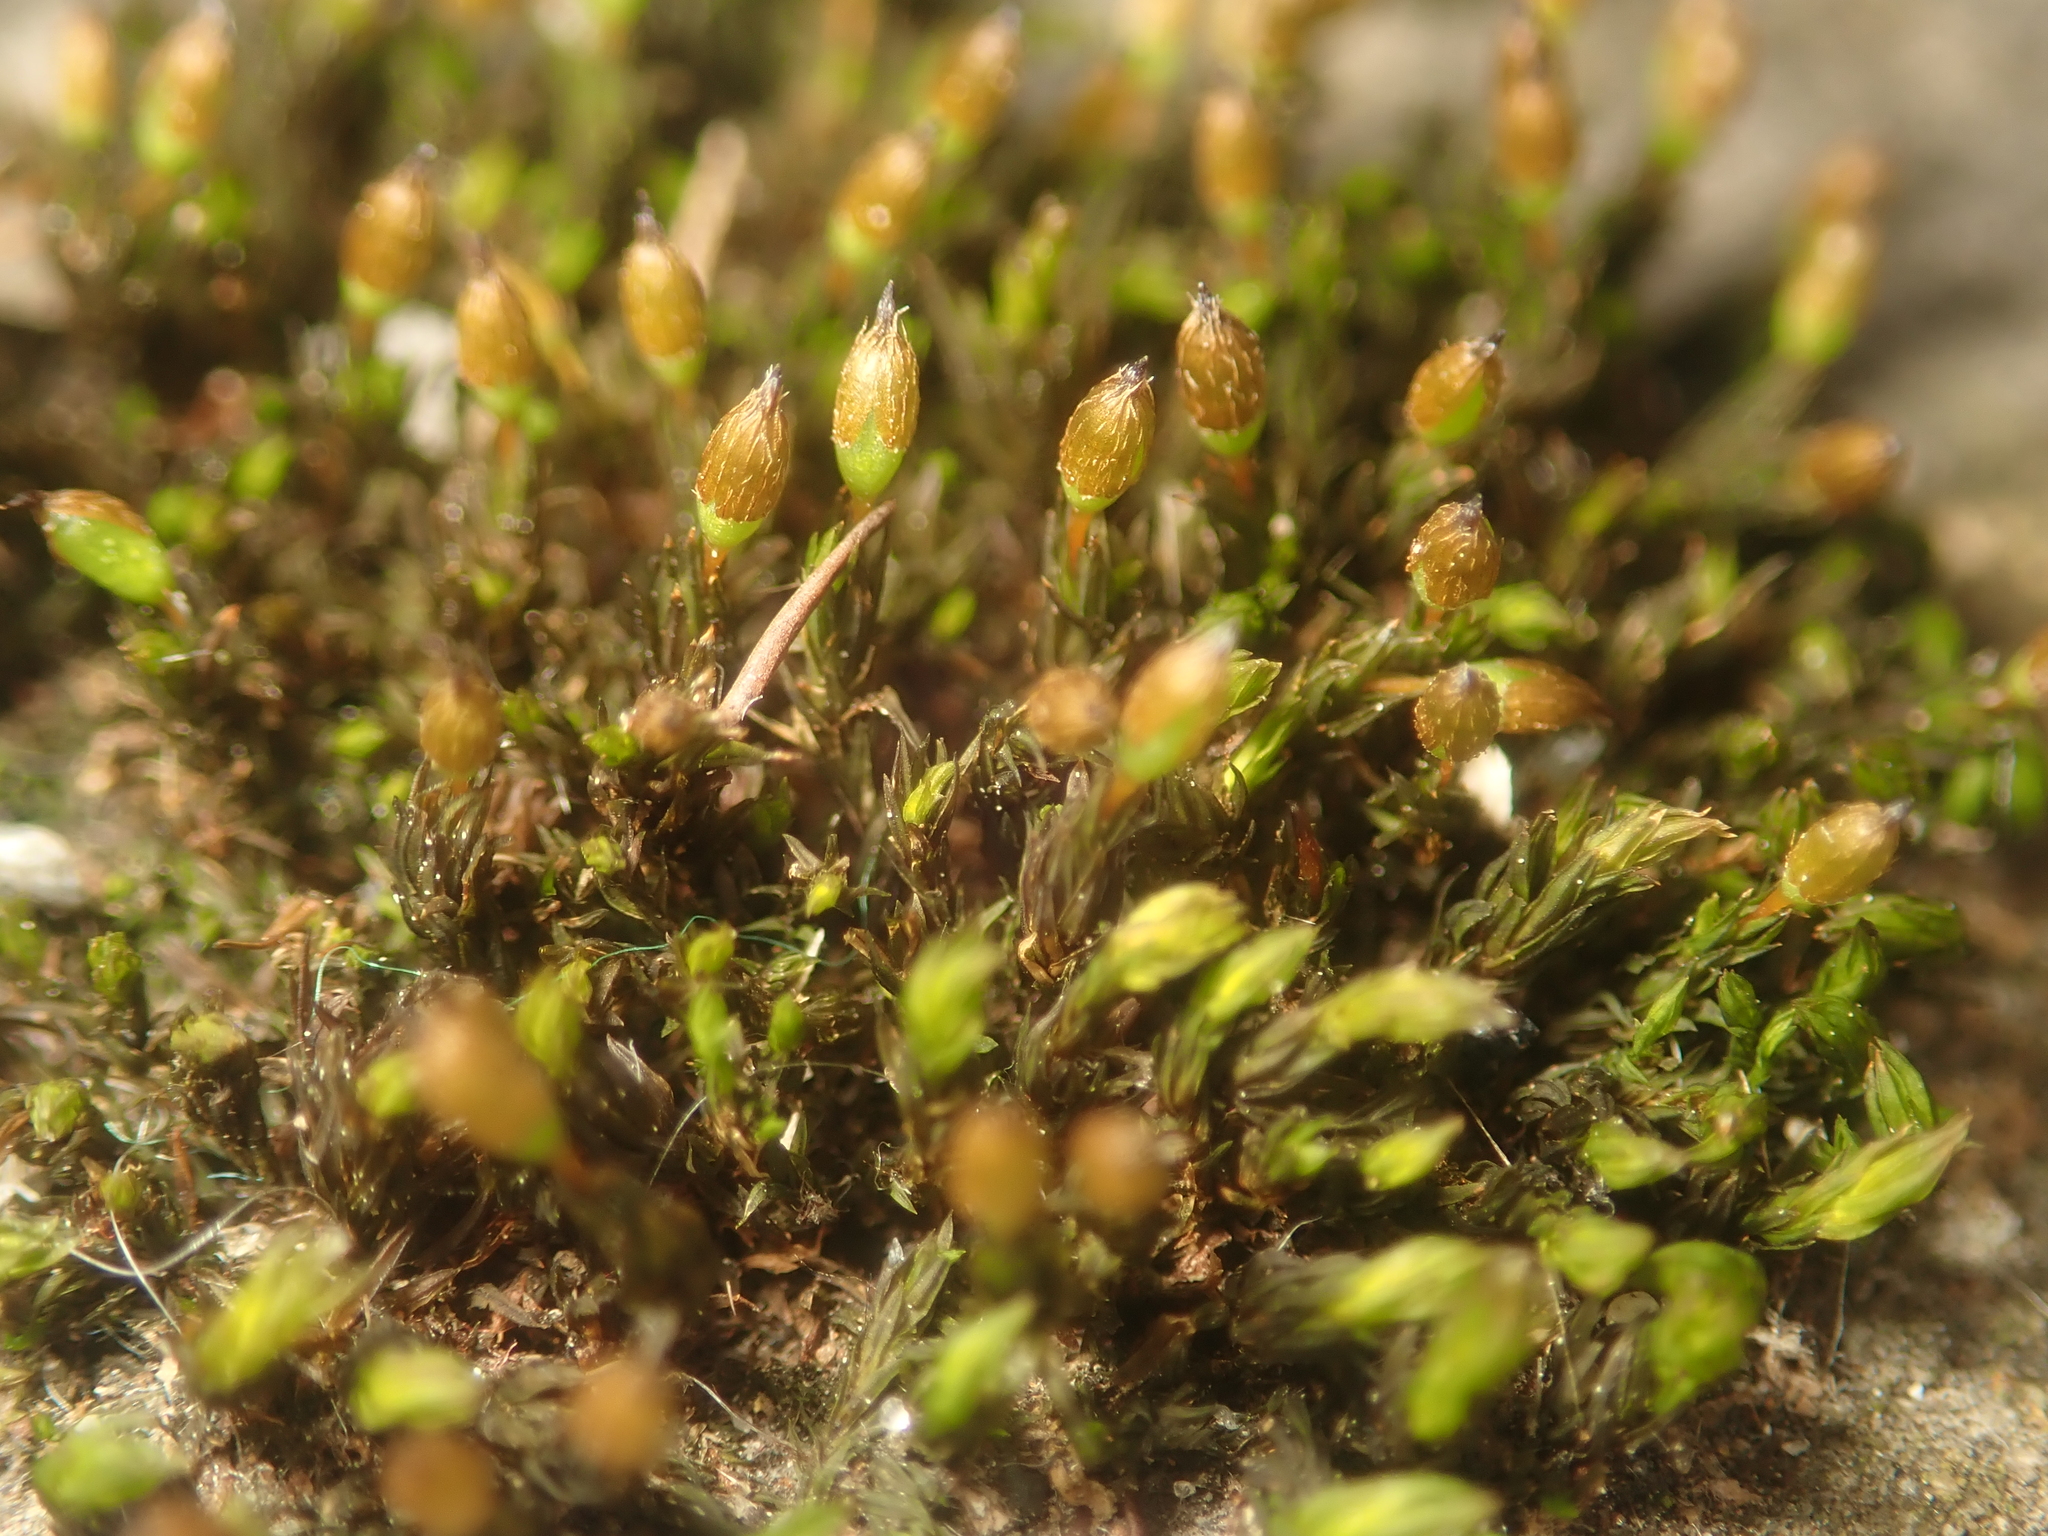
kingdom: Plantae
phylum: Bryophyta
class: Bryopsida
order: Orthotrichales
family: Orthotrichaceae
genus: Orthotrichum
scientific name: Orthotrichum anomalum
